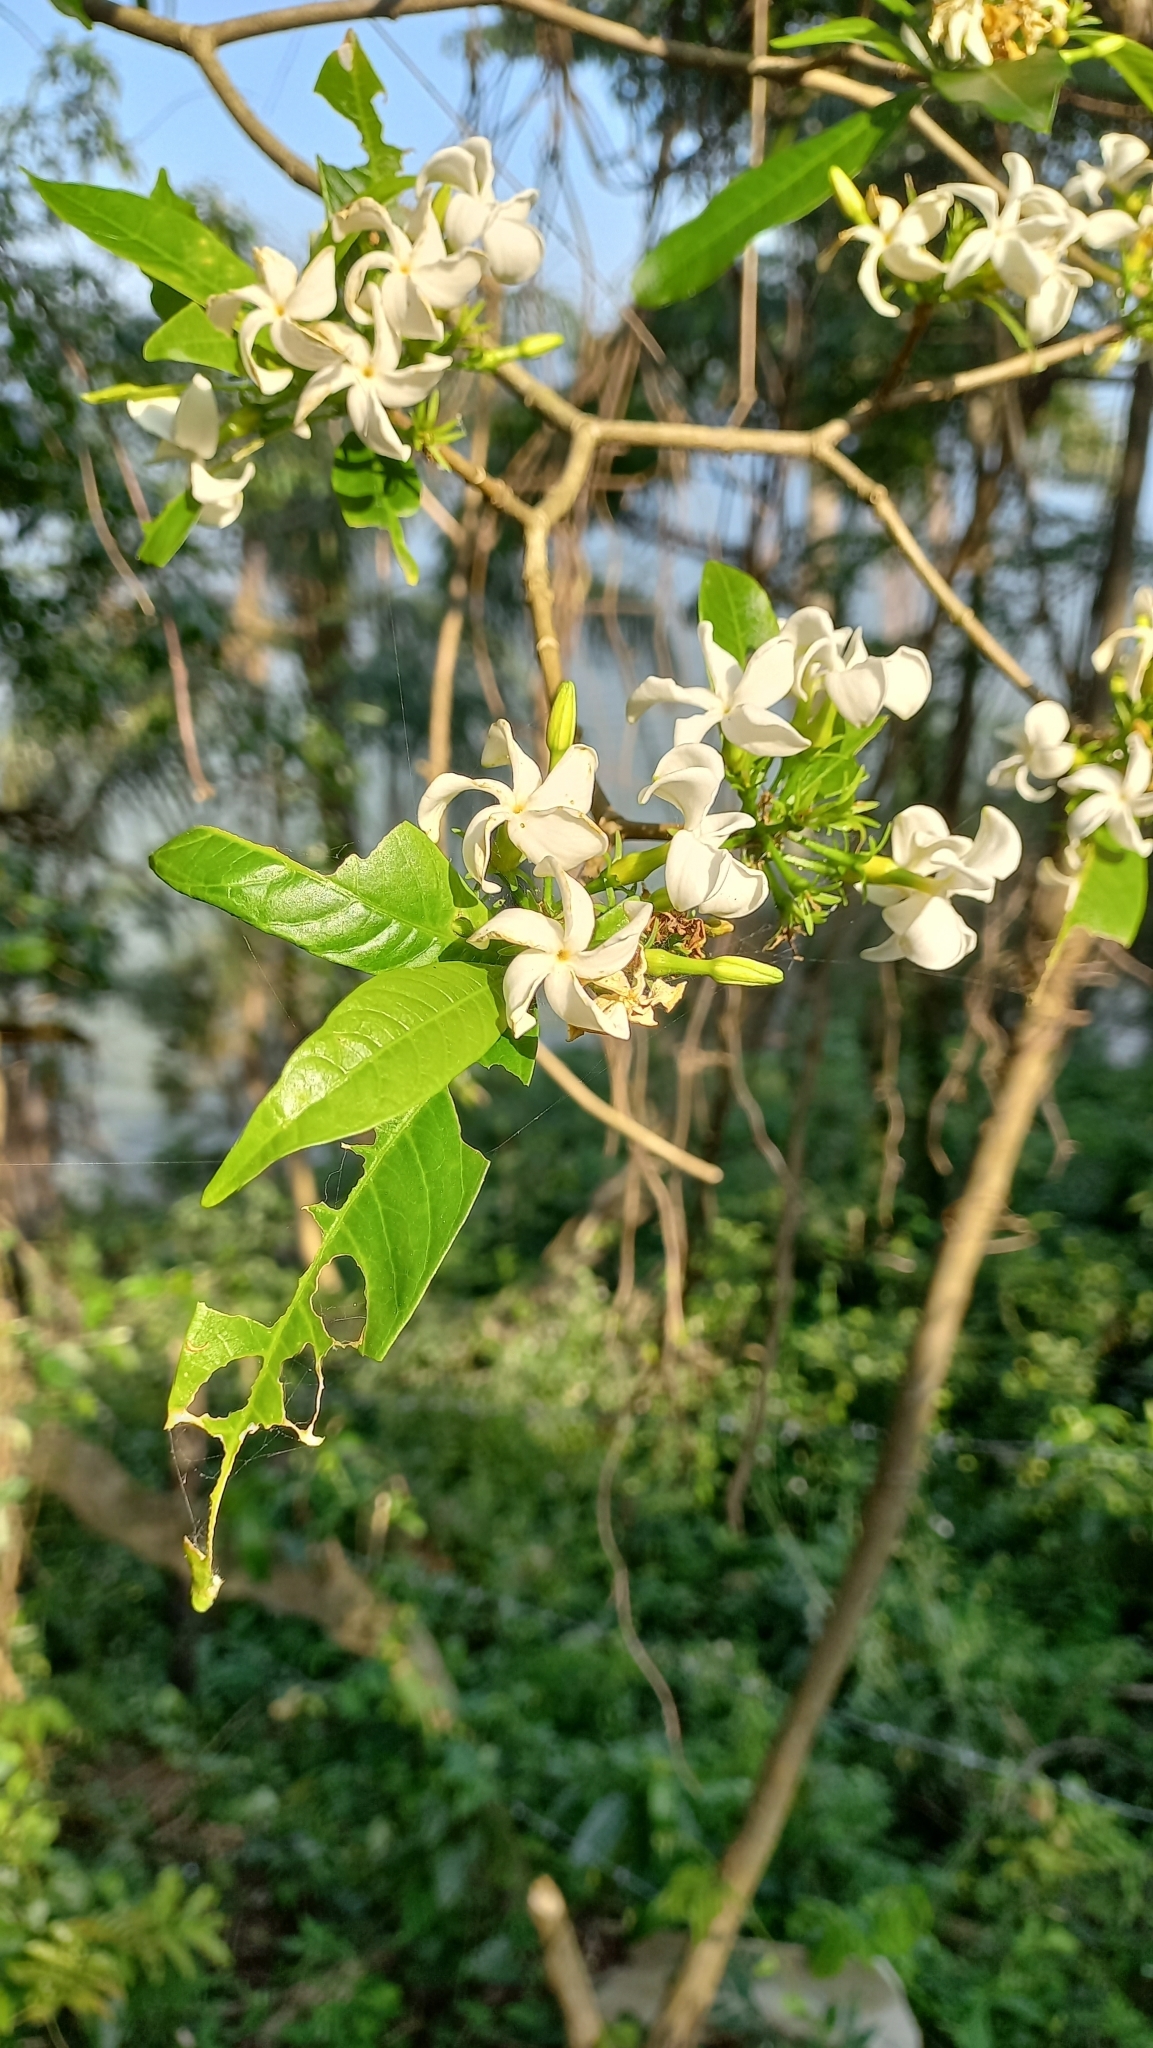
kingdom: Plantae
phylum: Tracheophyta
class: Magnoliopsida
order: Gentianales
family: Apocynaceae
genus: Tabernaemontana
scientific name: Tabernaemontana catharinensis
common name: Pinwheel-flower
